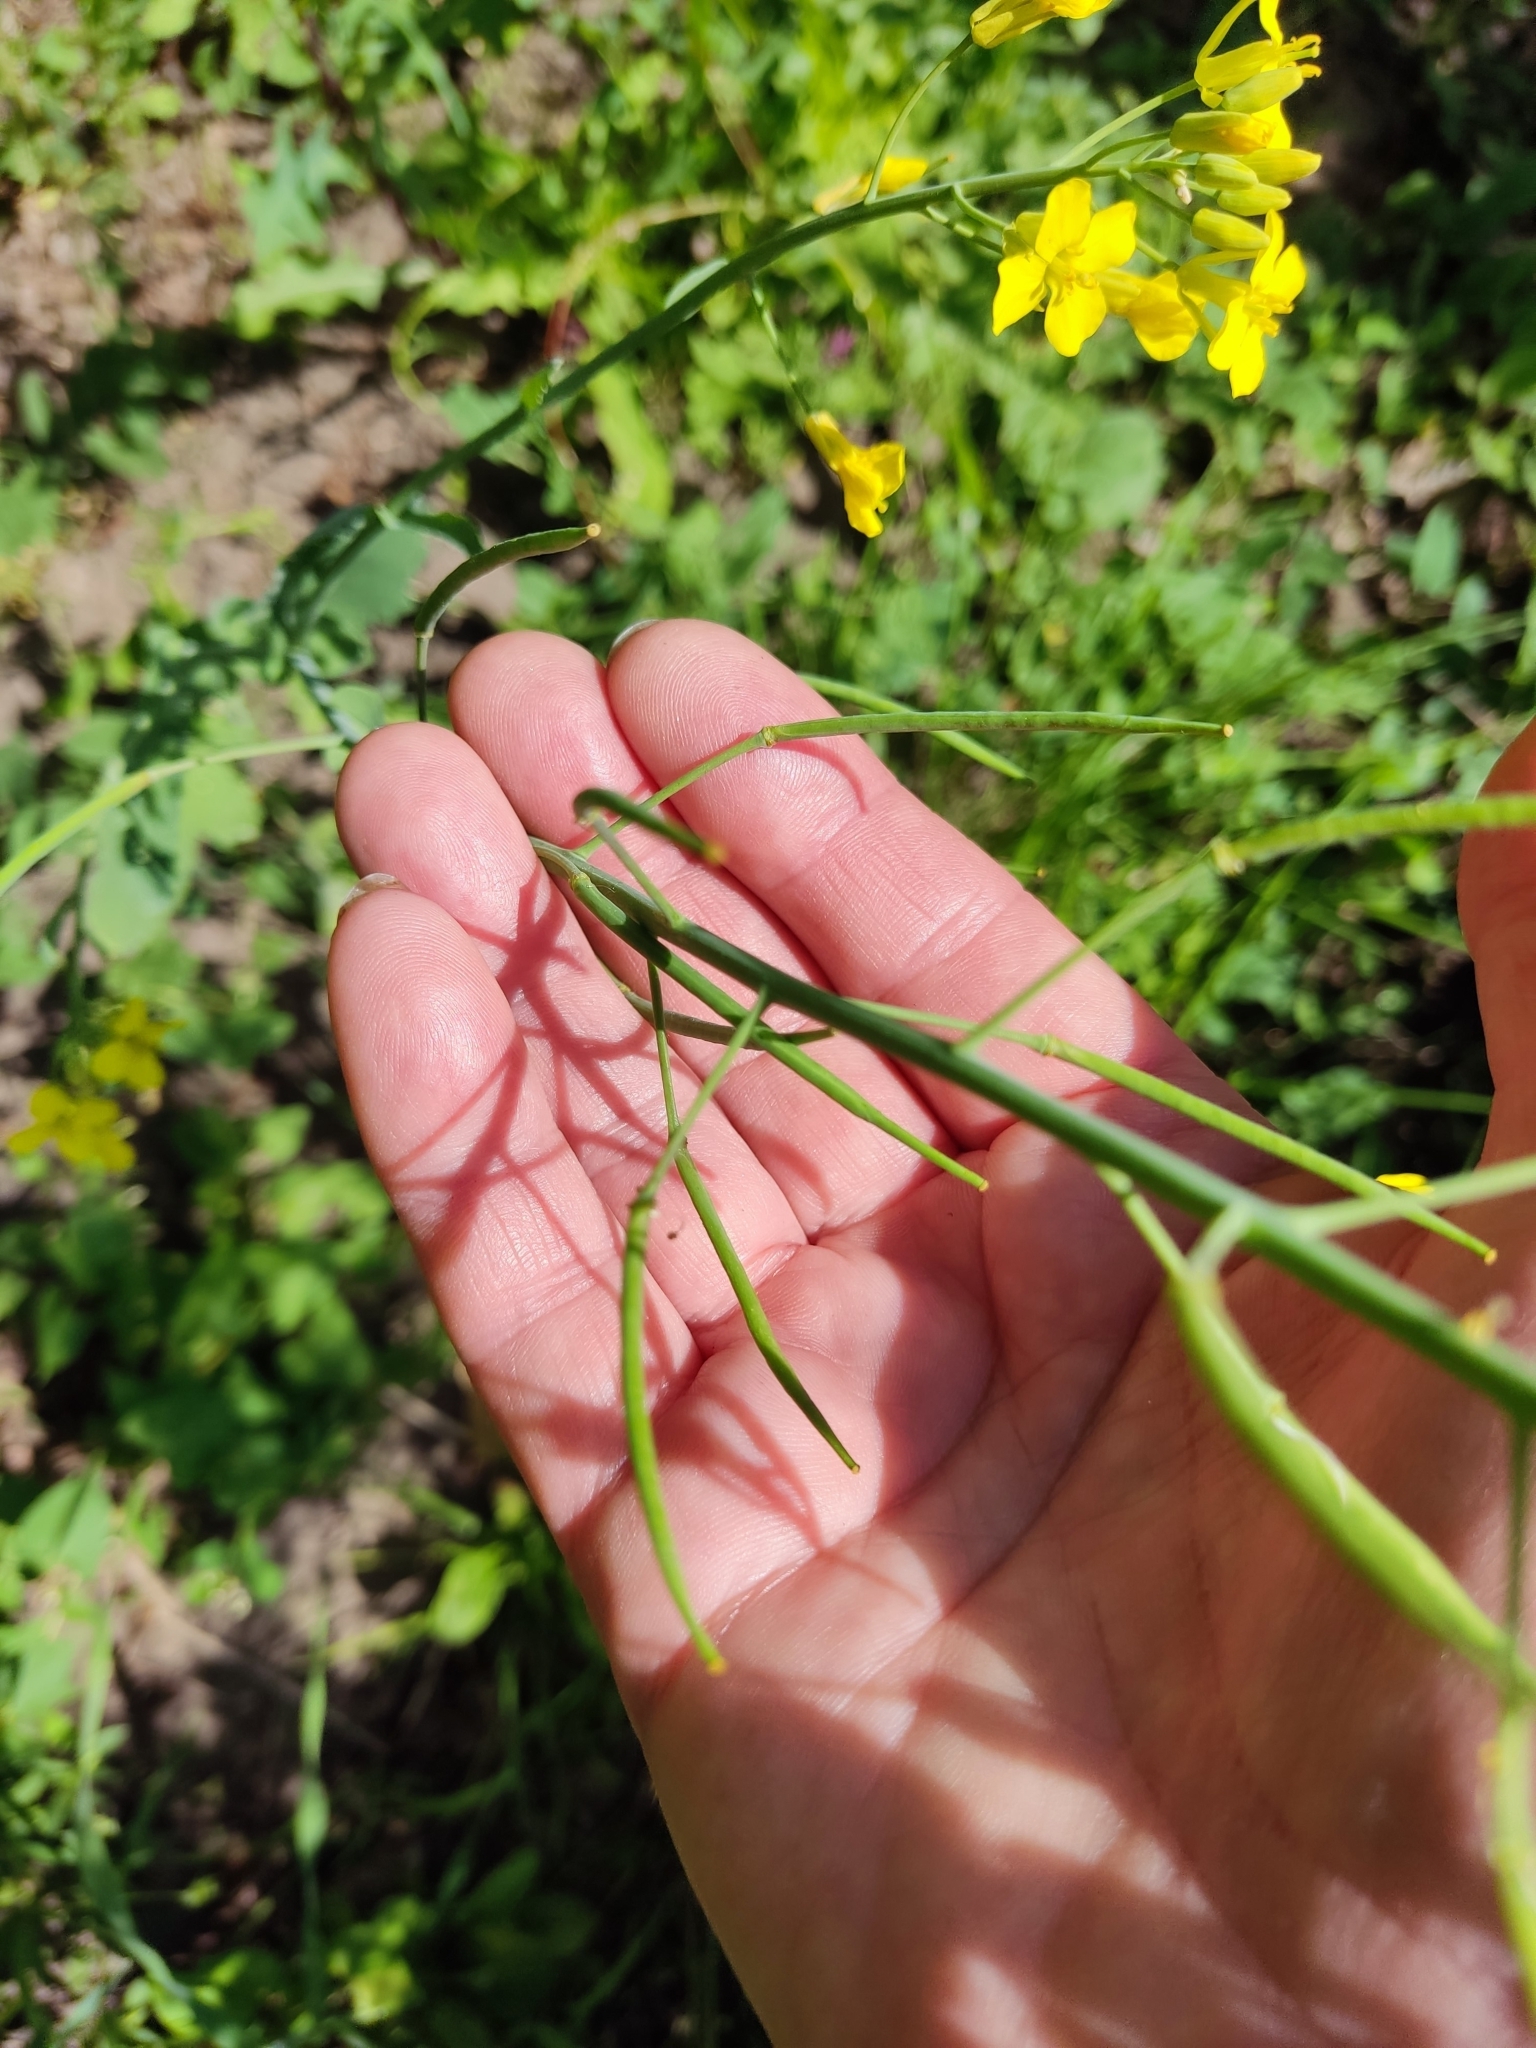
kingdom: Plantae
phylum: Tracheophyta
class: Magnoliopsida
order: Brassicales
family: Brassicaceae
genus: Brassica
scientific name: Brassica rapa
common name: Field mustard
